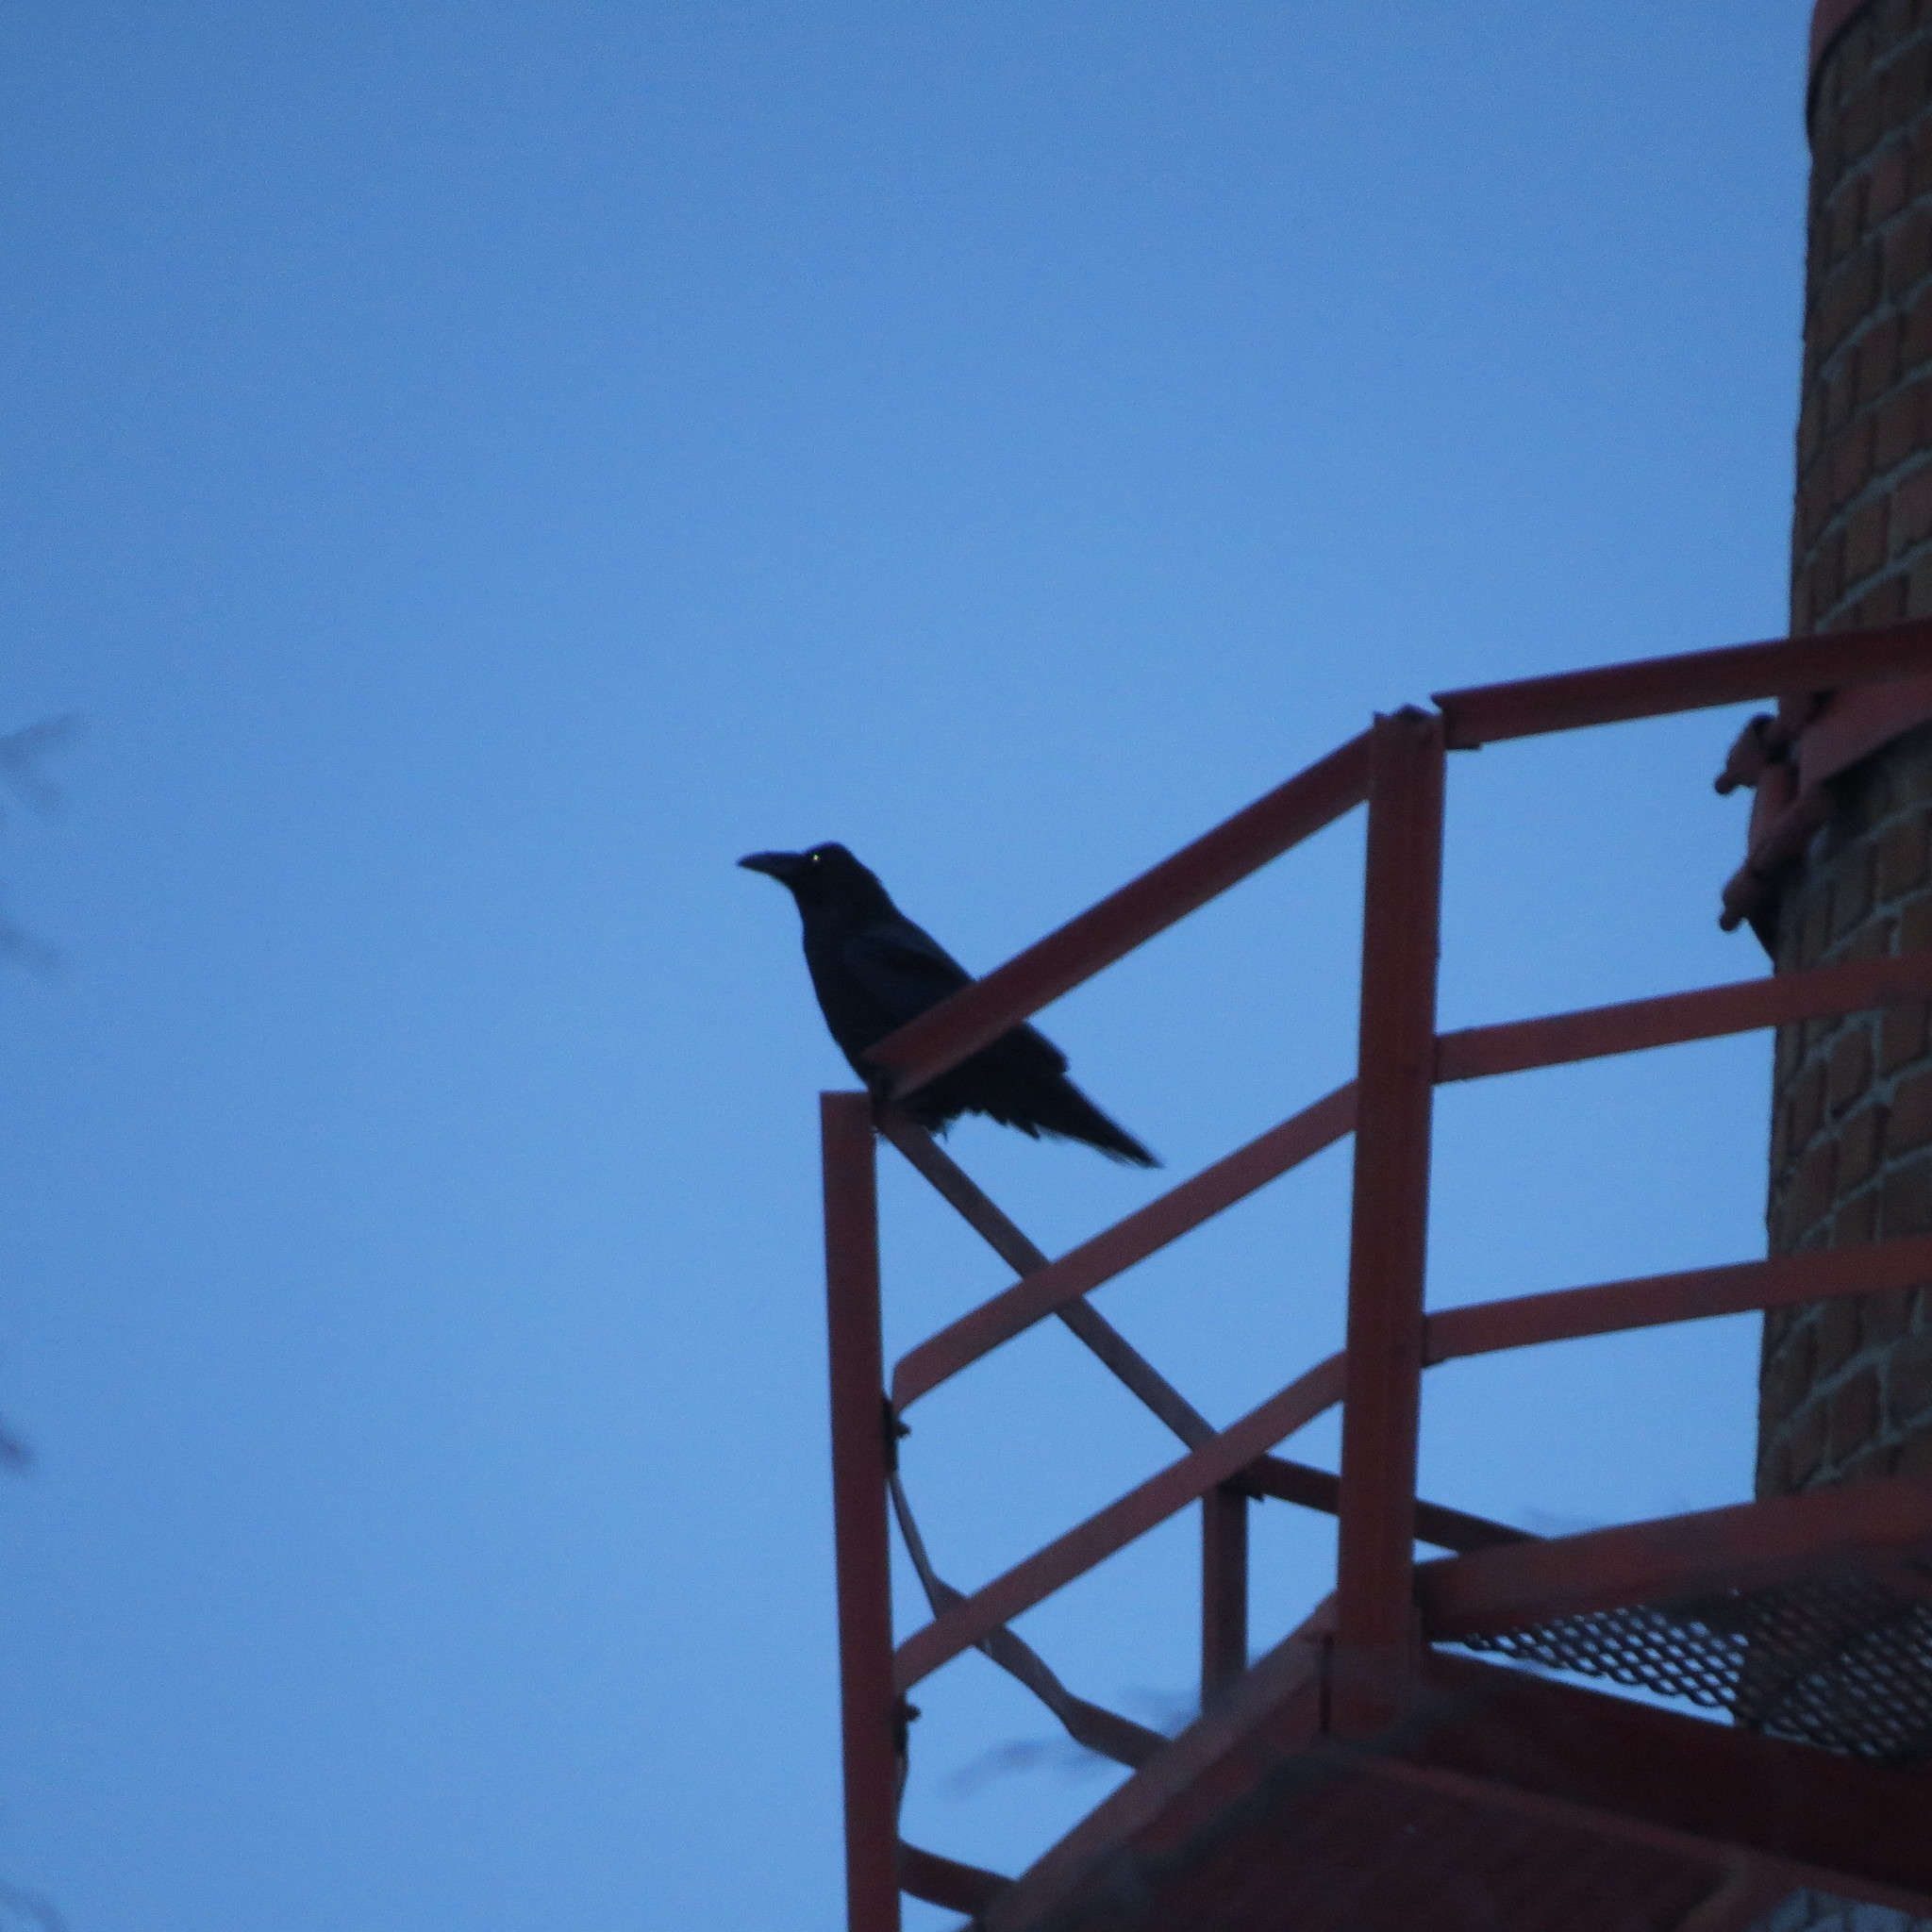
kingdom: Animalia
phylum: Chordata
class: Aves
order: Passeriformes
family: Corvidae
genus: Corvus
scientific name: Corvus corax
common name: Common raven
